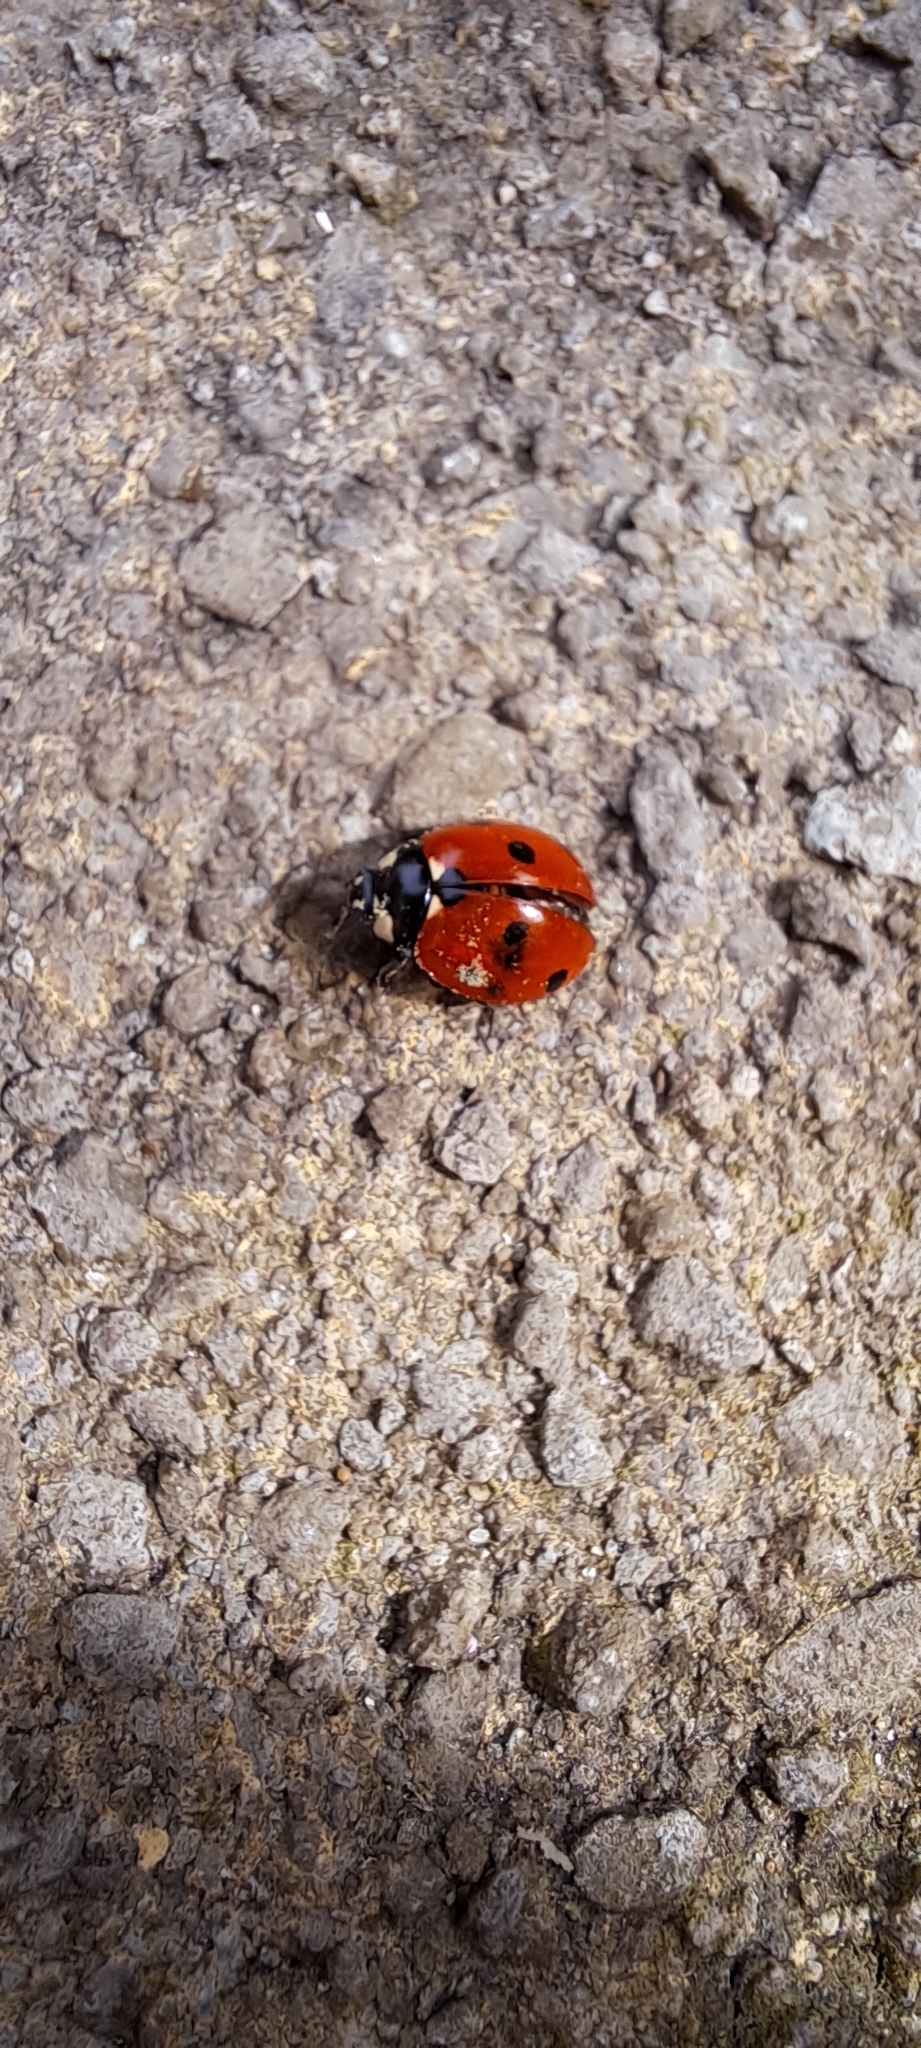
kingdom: Animalia
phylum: Arthropoda
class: Insecta
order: Coleoptera
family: Coccinellidae
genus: Coccinella
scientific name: Coccinella septempunctata
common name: Sevenspotted lady beetle
